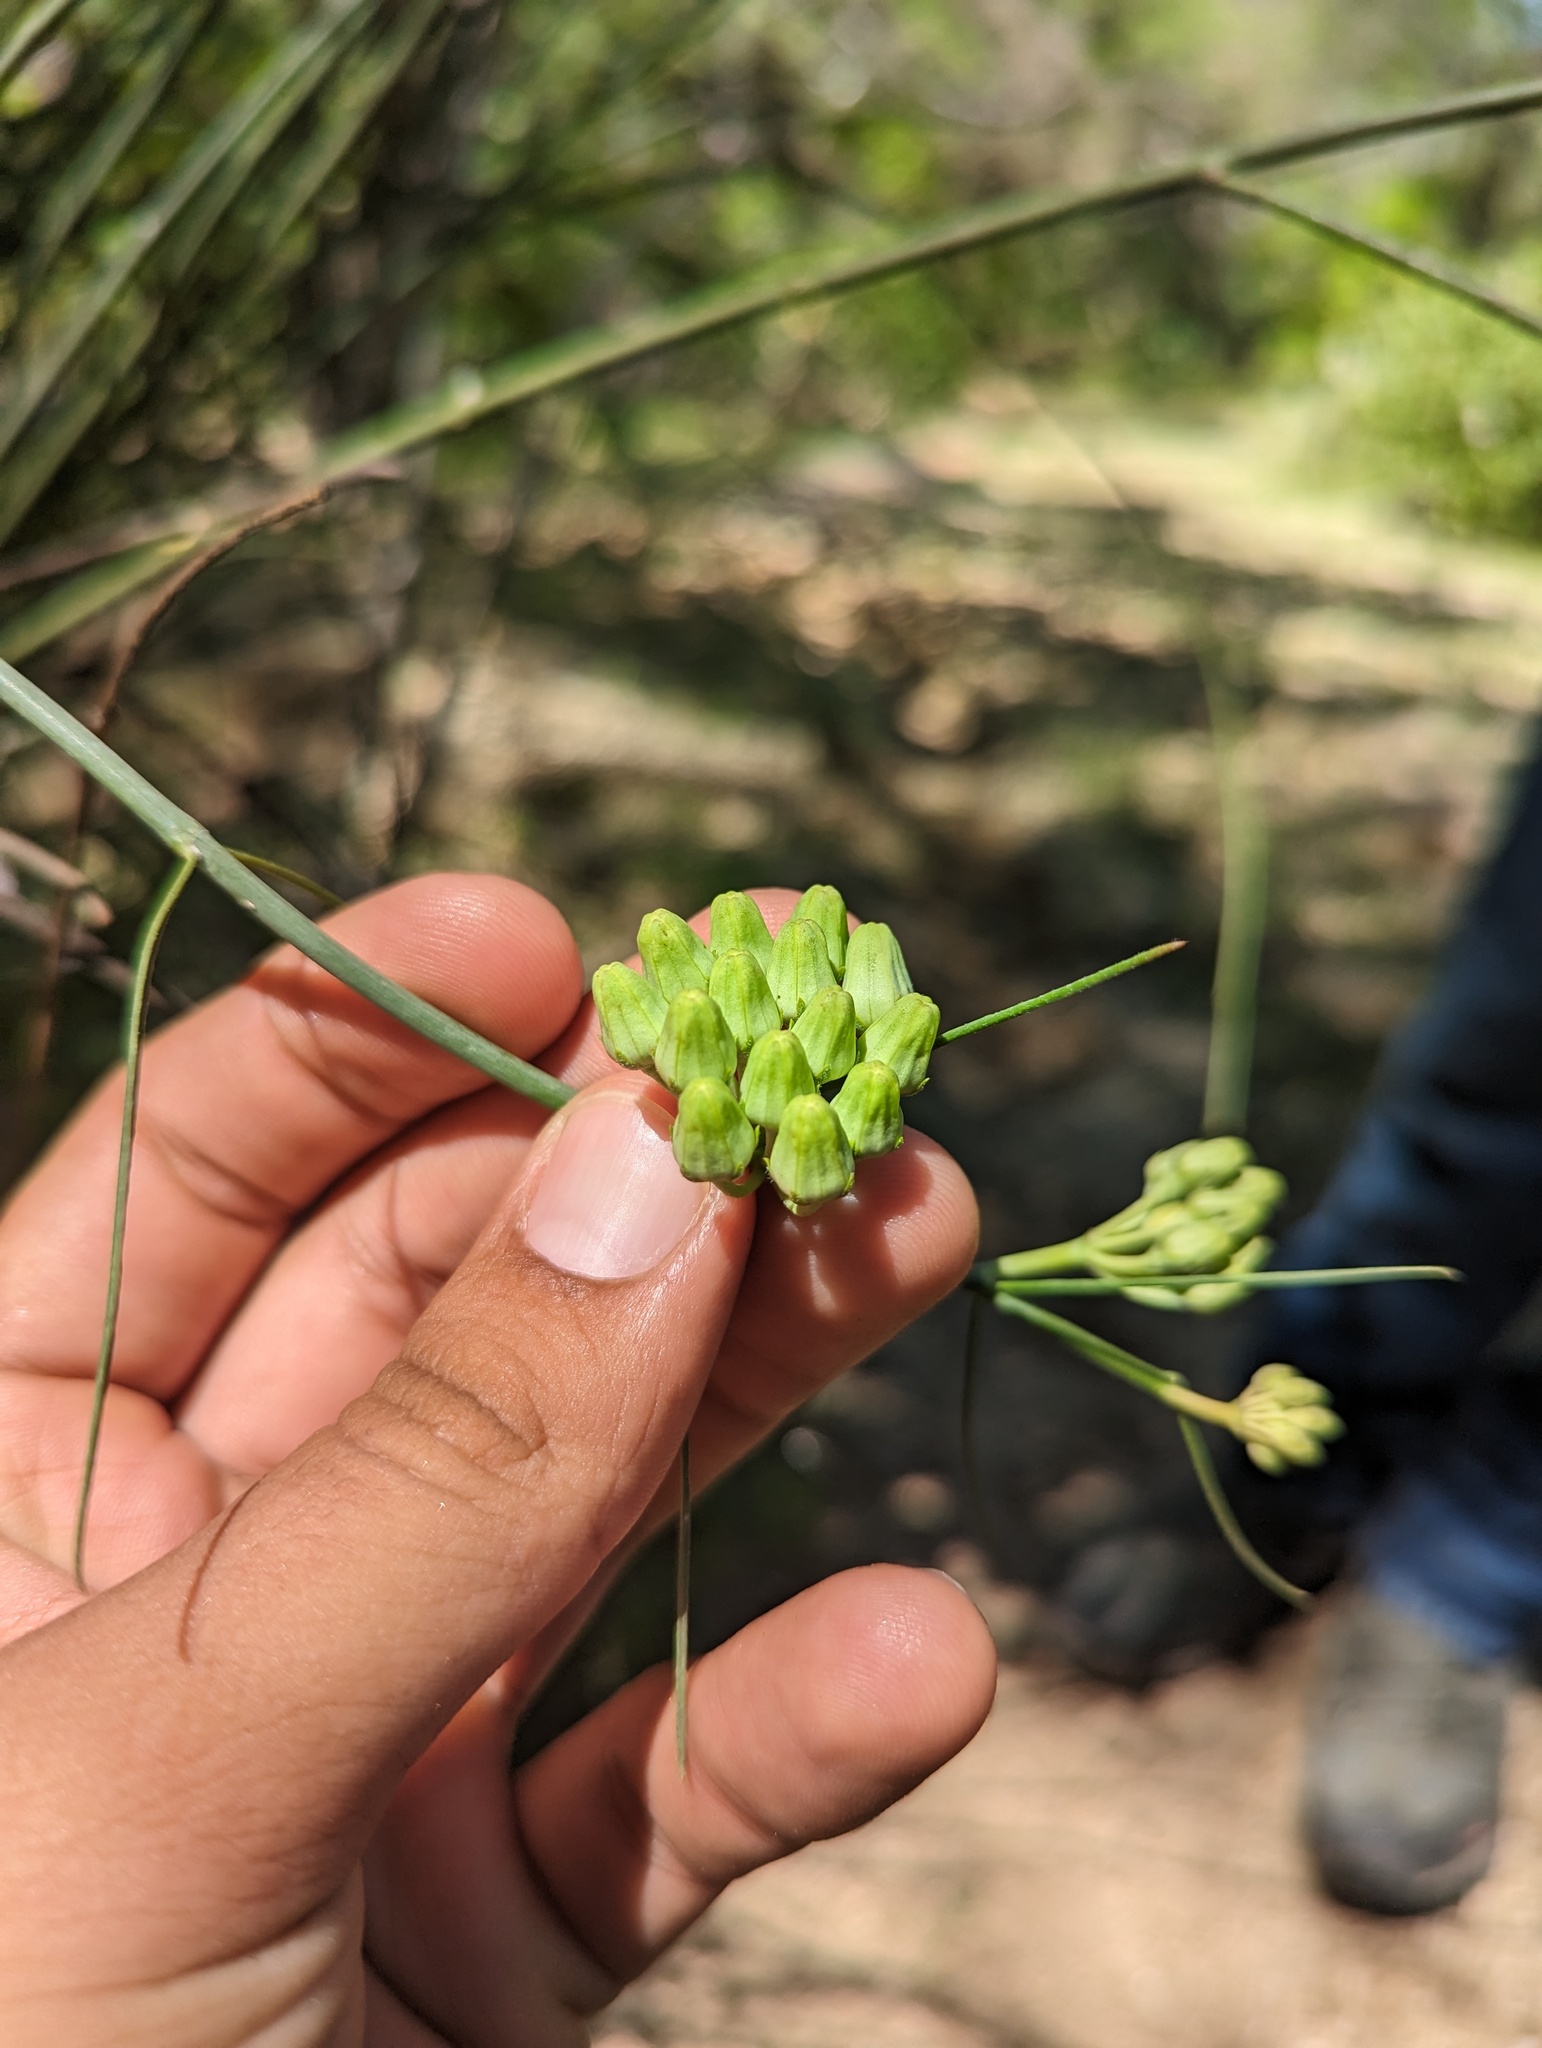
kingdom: Plantae
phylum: Tracheophyta
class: Magnoliopsida
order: Gentianales
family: Apocynaceae
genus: Asclepias
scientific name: Asclepias subulata
